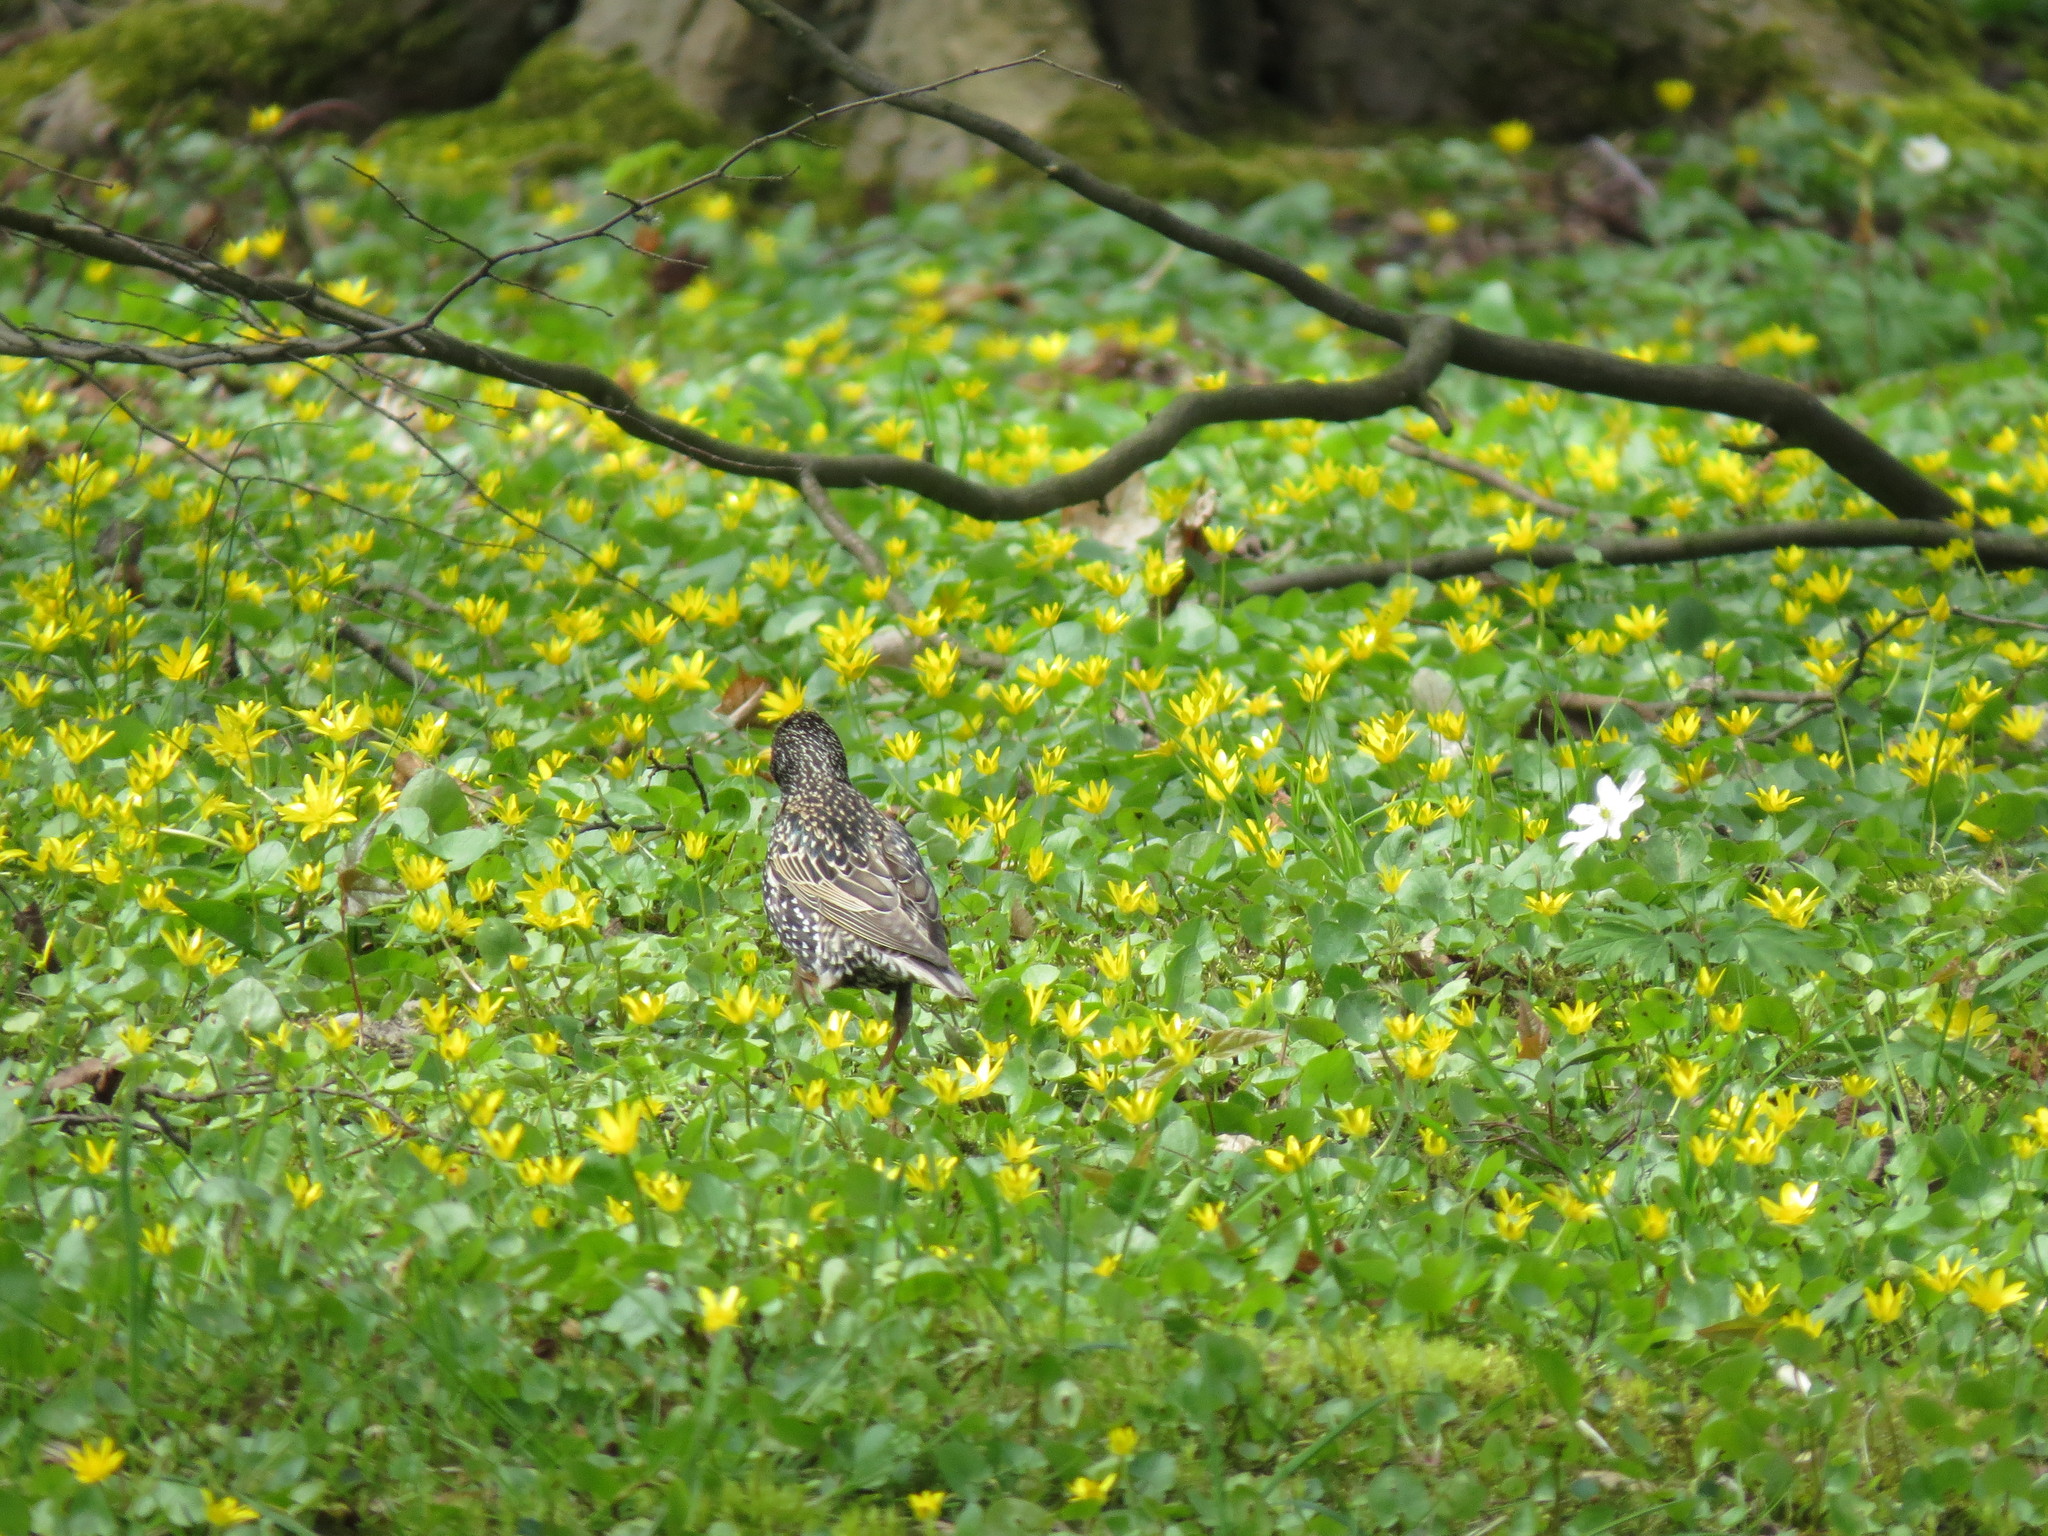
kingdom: Animalia
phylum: Chordata
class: Aves
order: Passeriformes
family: Sturnidae
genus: Sturnus
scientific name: Sturnus vulgaris
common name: Common starling
